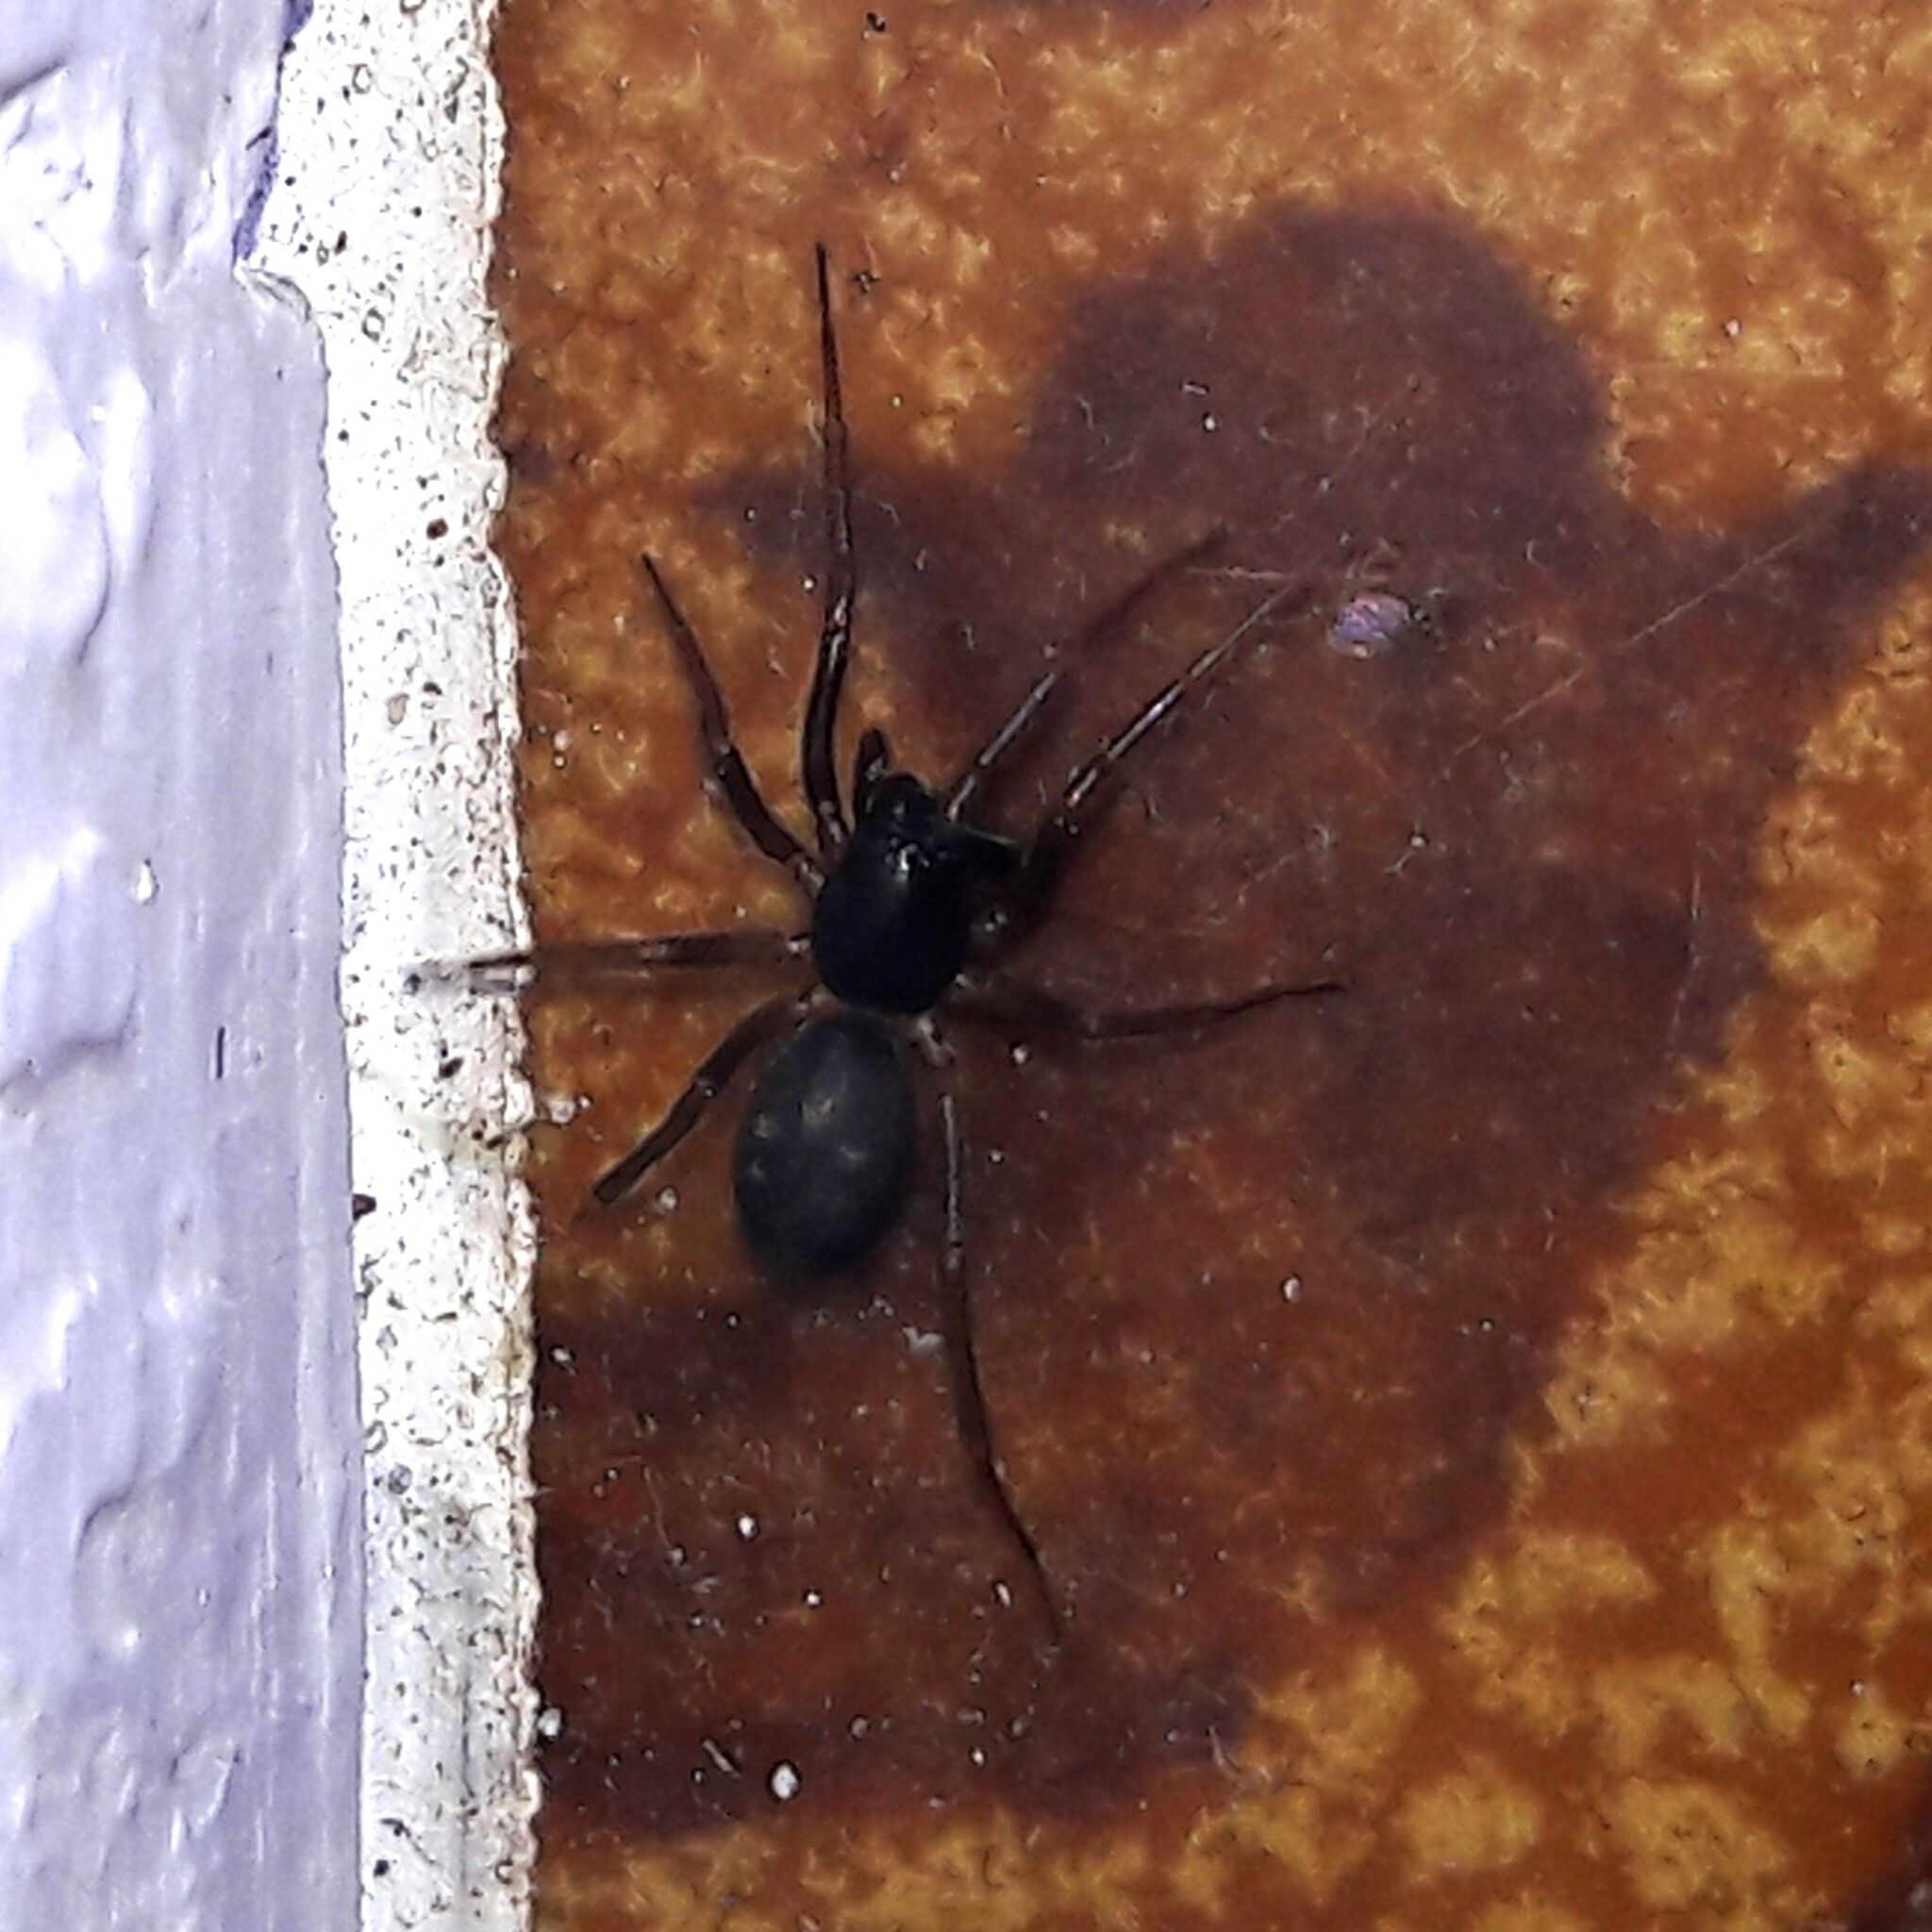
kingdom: Animalia
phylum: Arthropoda
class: Arachnida
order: Araneae
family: Corinnidae
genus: Falconina
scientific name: Falconina gracilis
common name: Antmimic spider
